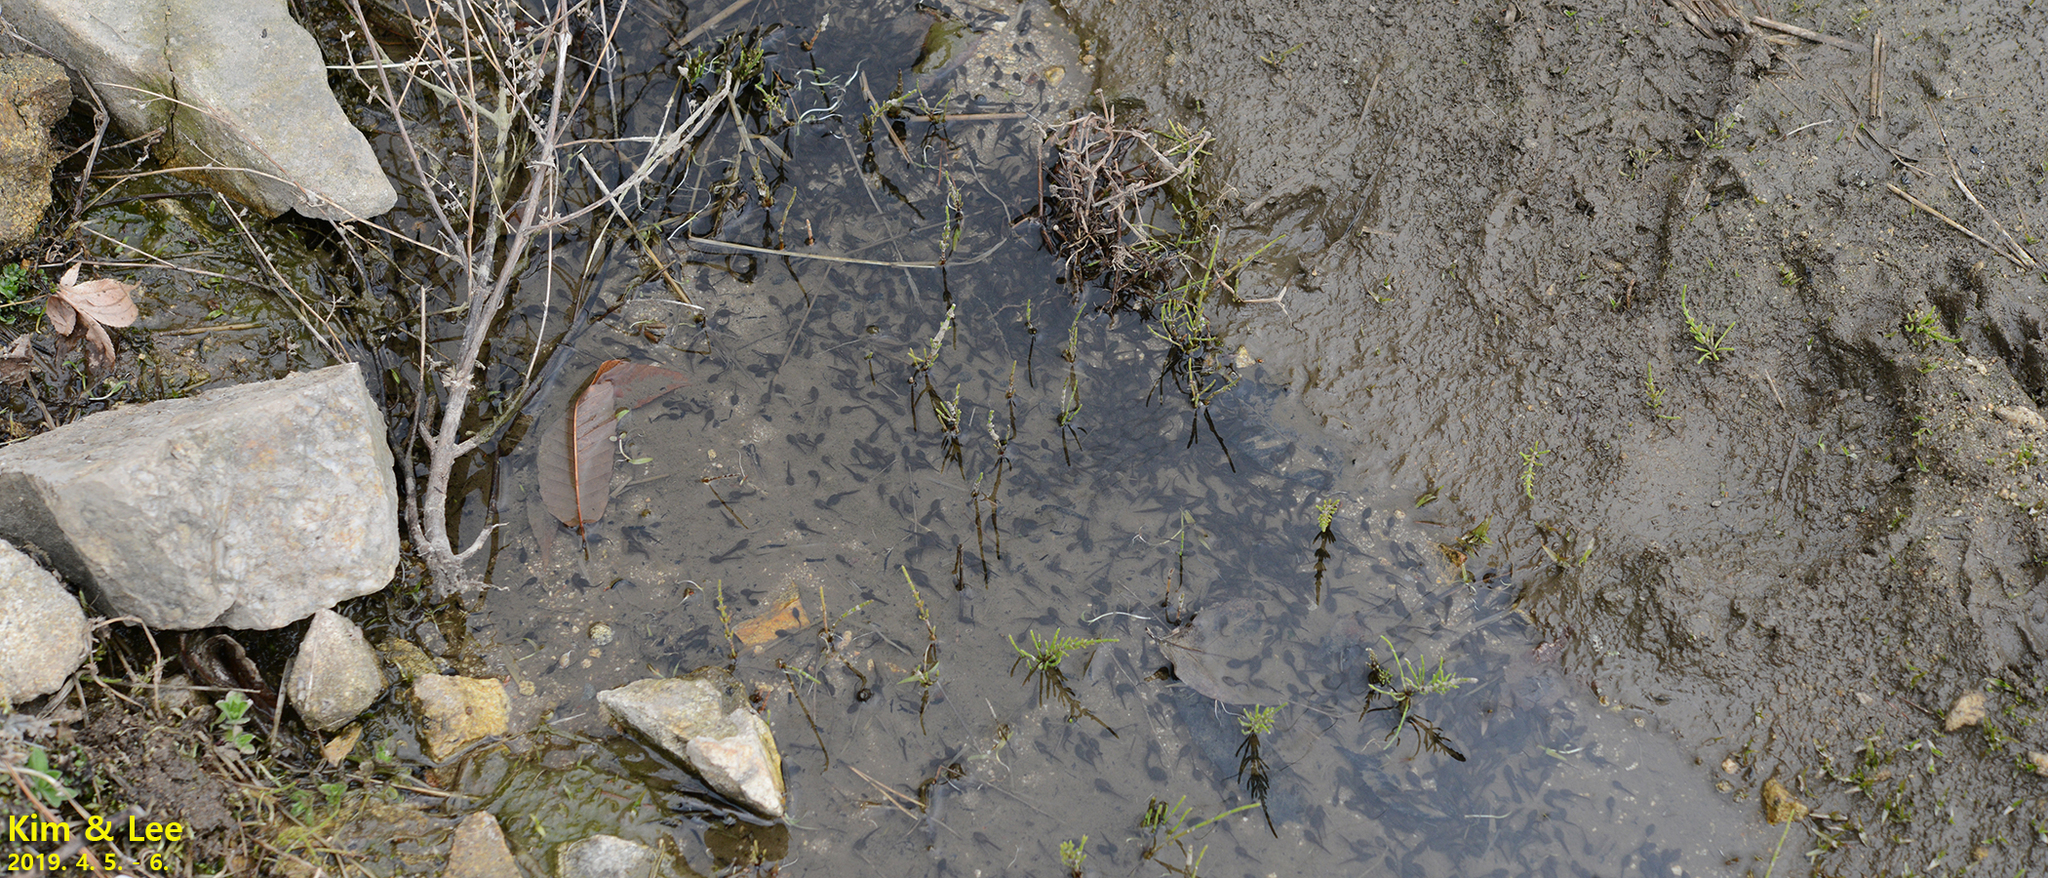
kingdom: Animalia
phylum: Chordata
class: Amphibia
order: Anura
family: Ranidae
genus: Rana
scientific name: Rana uenoi
